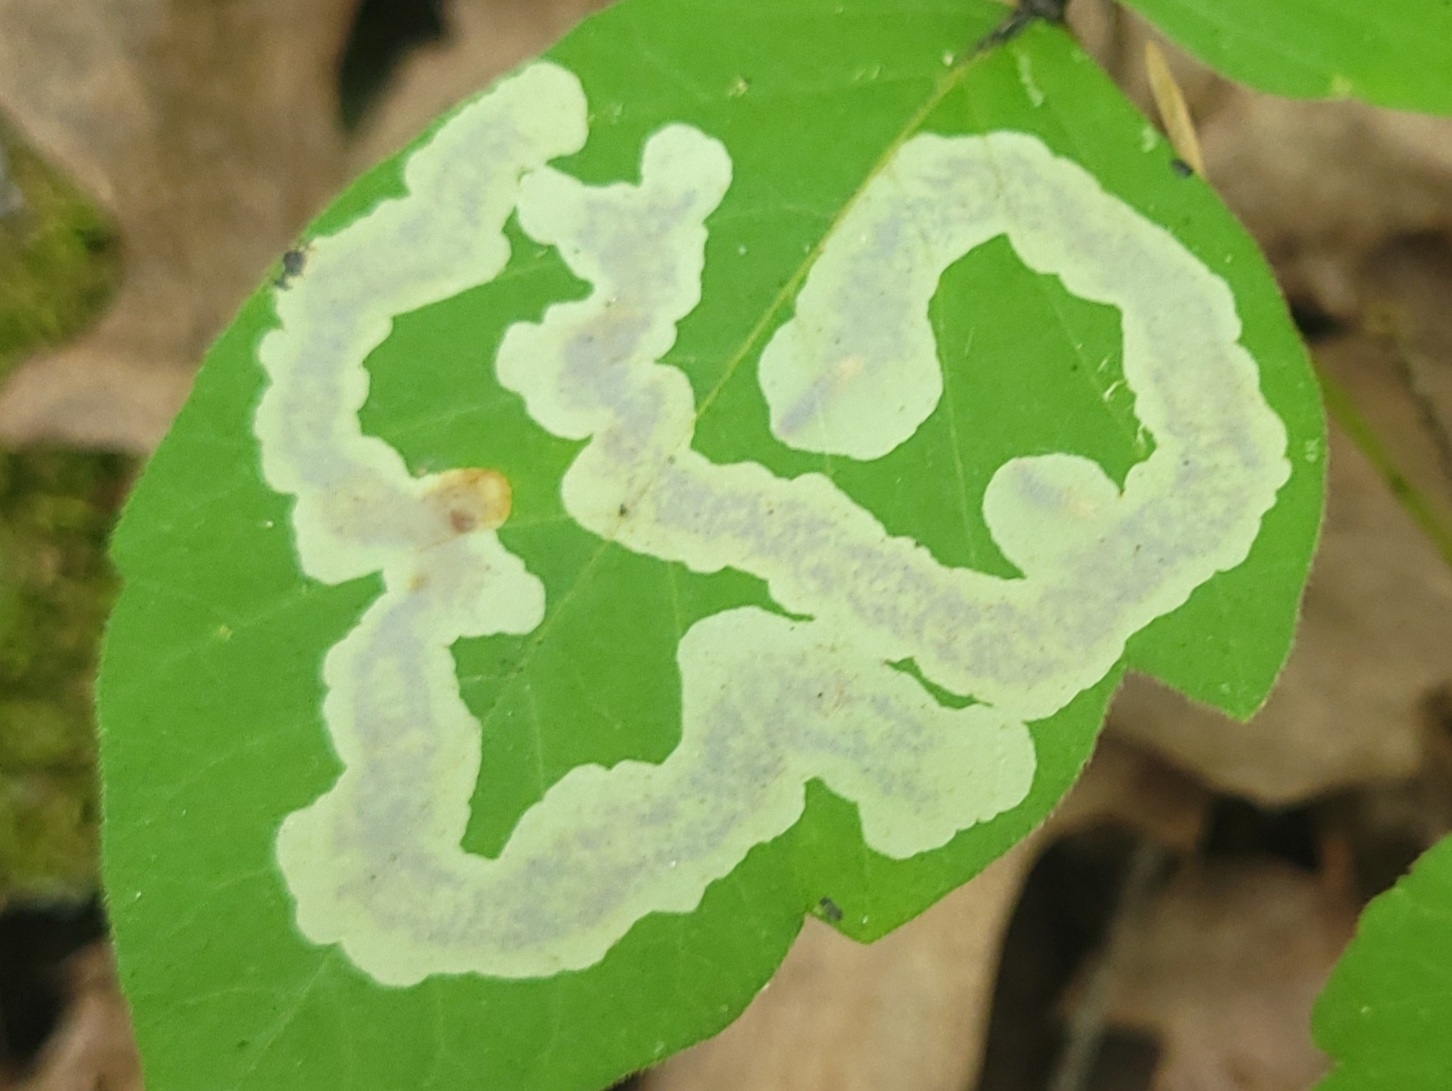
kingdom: Animalia
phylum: Arthropoda
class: Insecta
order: Lepidoptera
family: Gracillariidae
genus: Cameraria
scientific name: Cameraria guttifinitella
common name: Poison ivy leaf-miner moth
